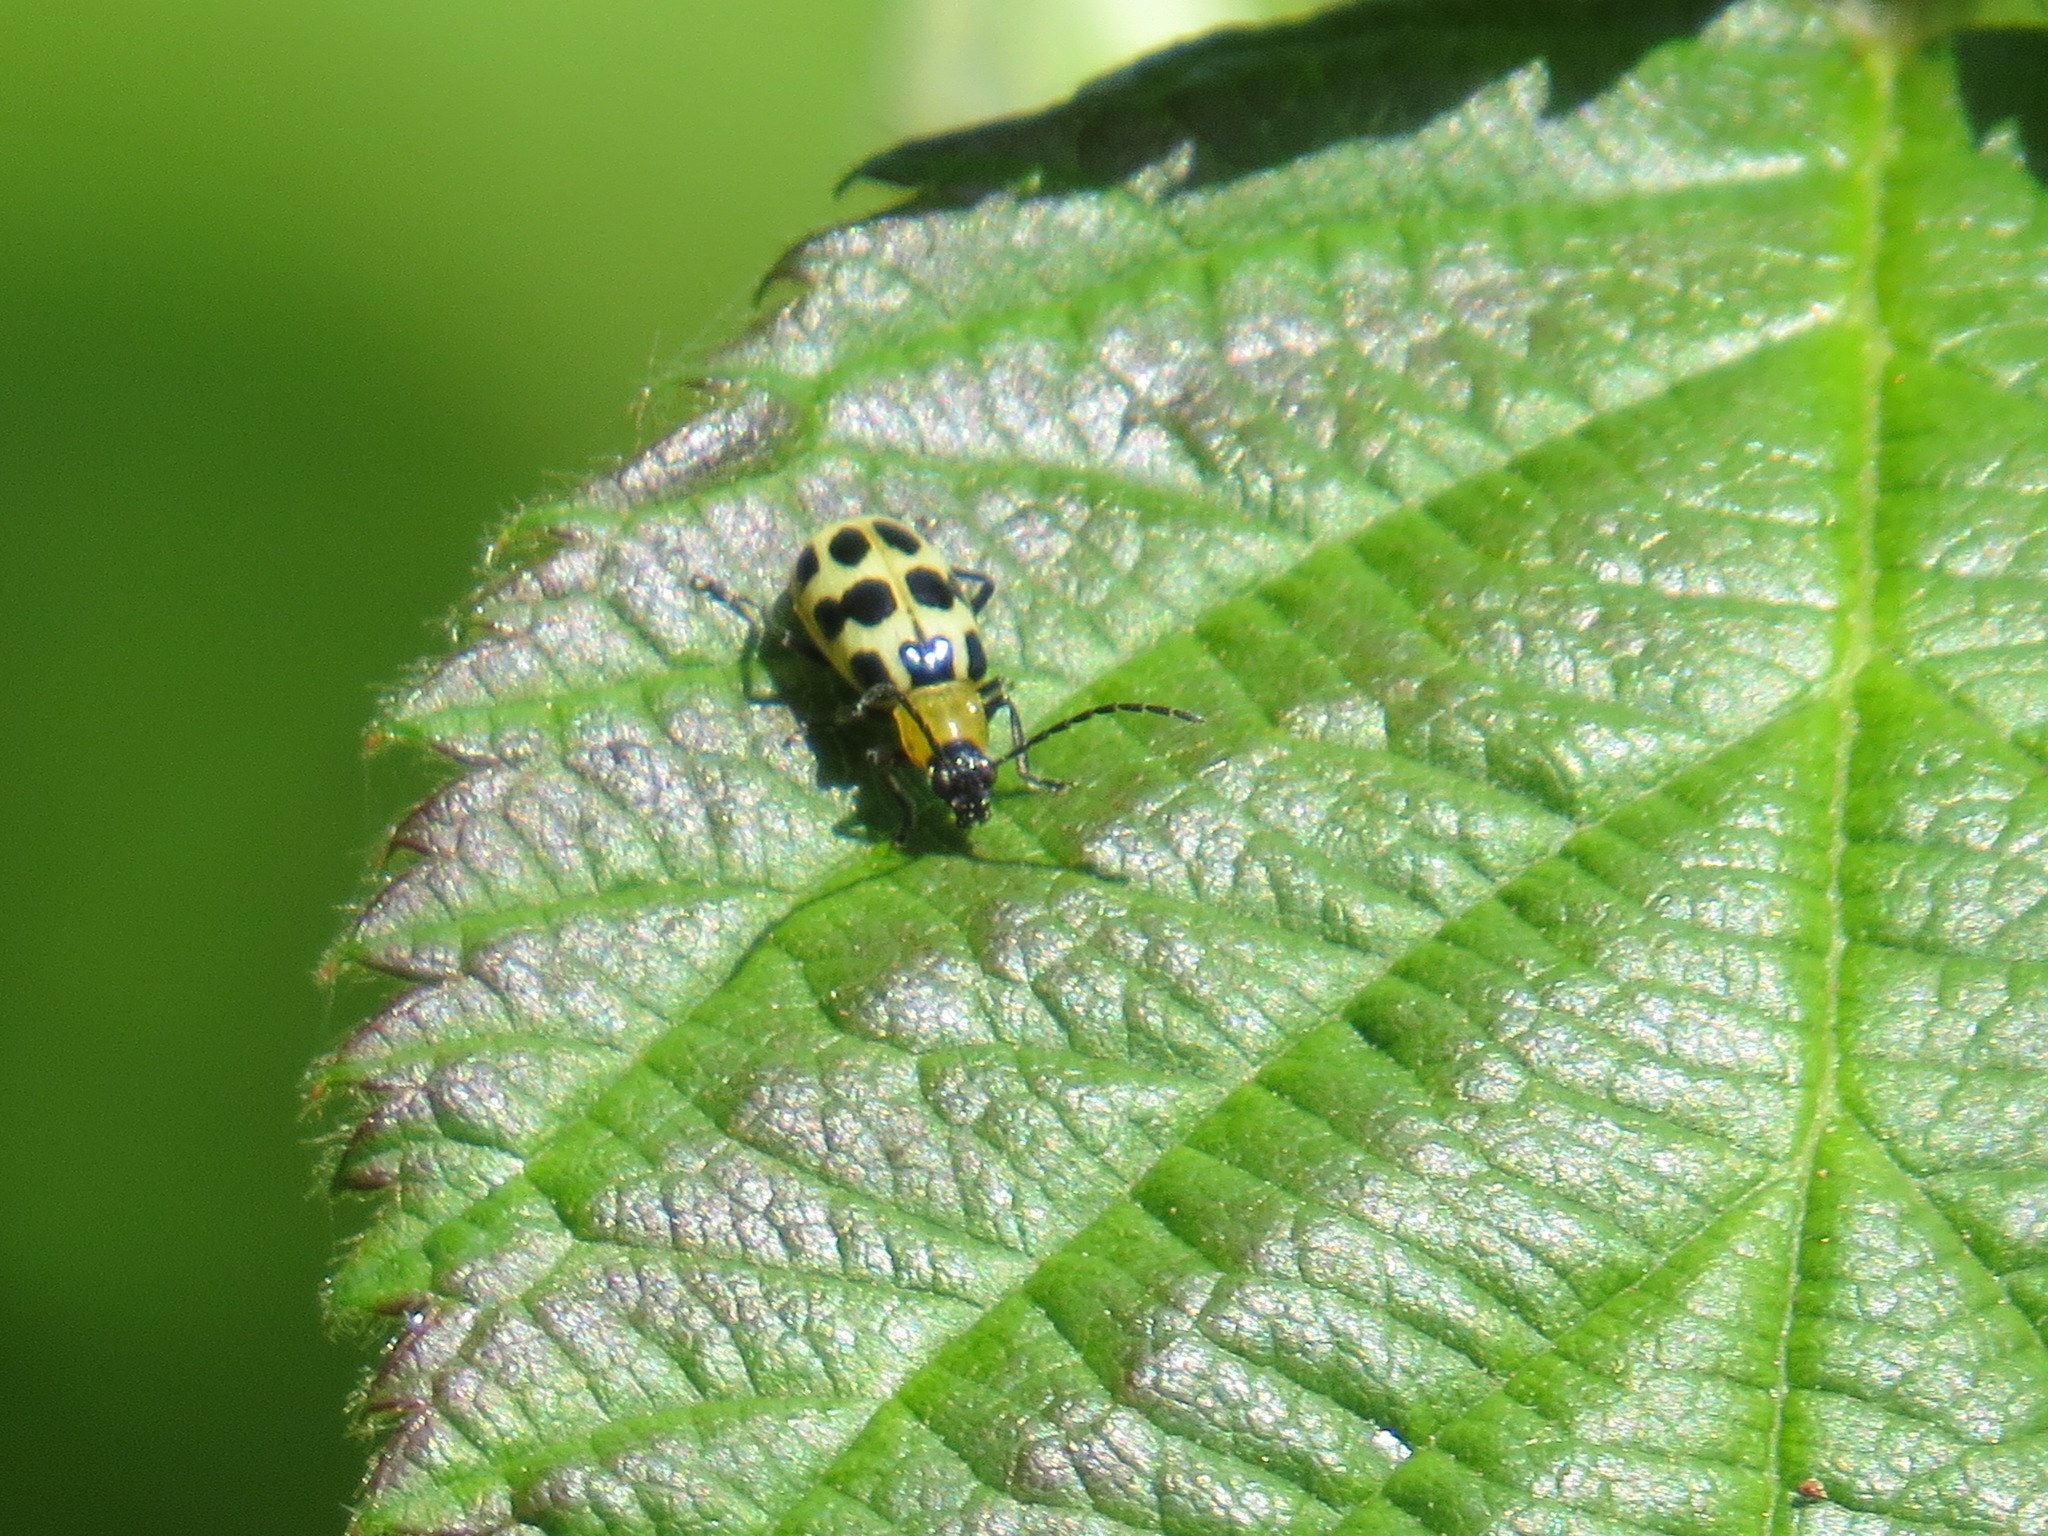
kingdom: Animalia
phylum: Arthropoda
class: Insecta
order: Coleoptera
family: Chrysomelidae
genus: Diabrotica
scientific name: Diabrotica undecimpunctata
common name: Spotted cucumber beetle
